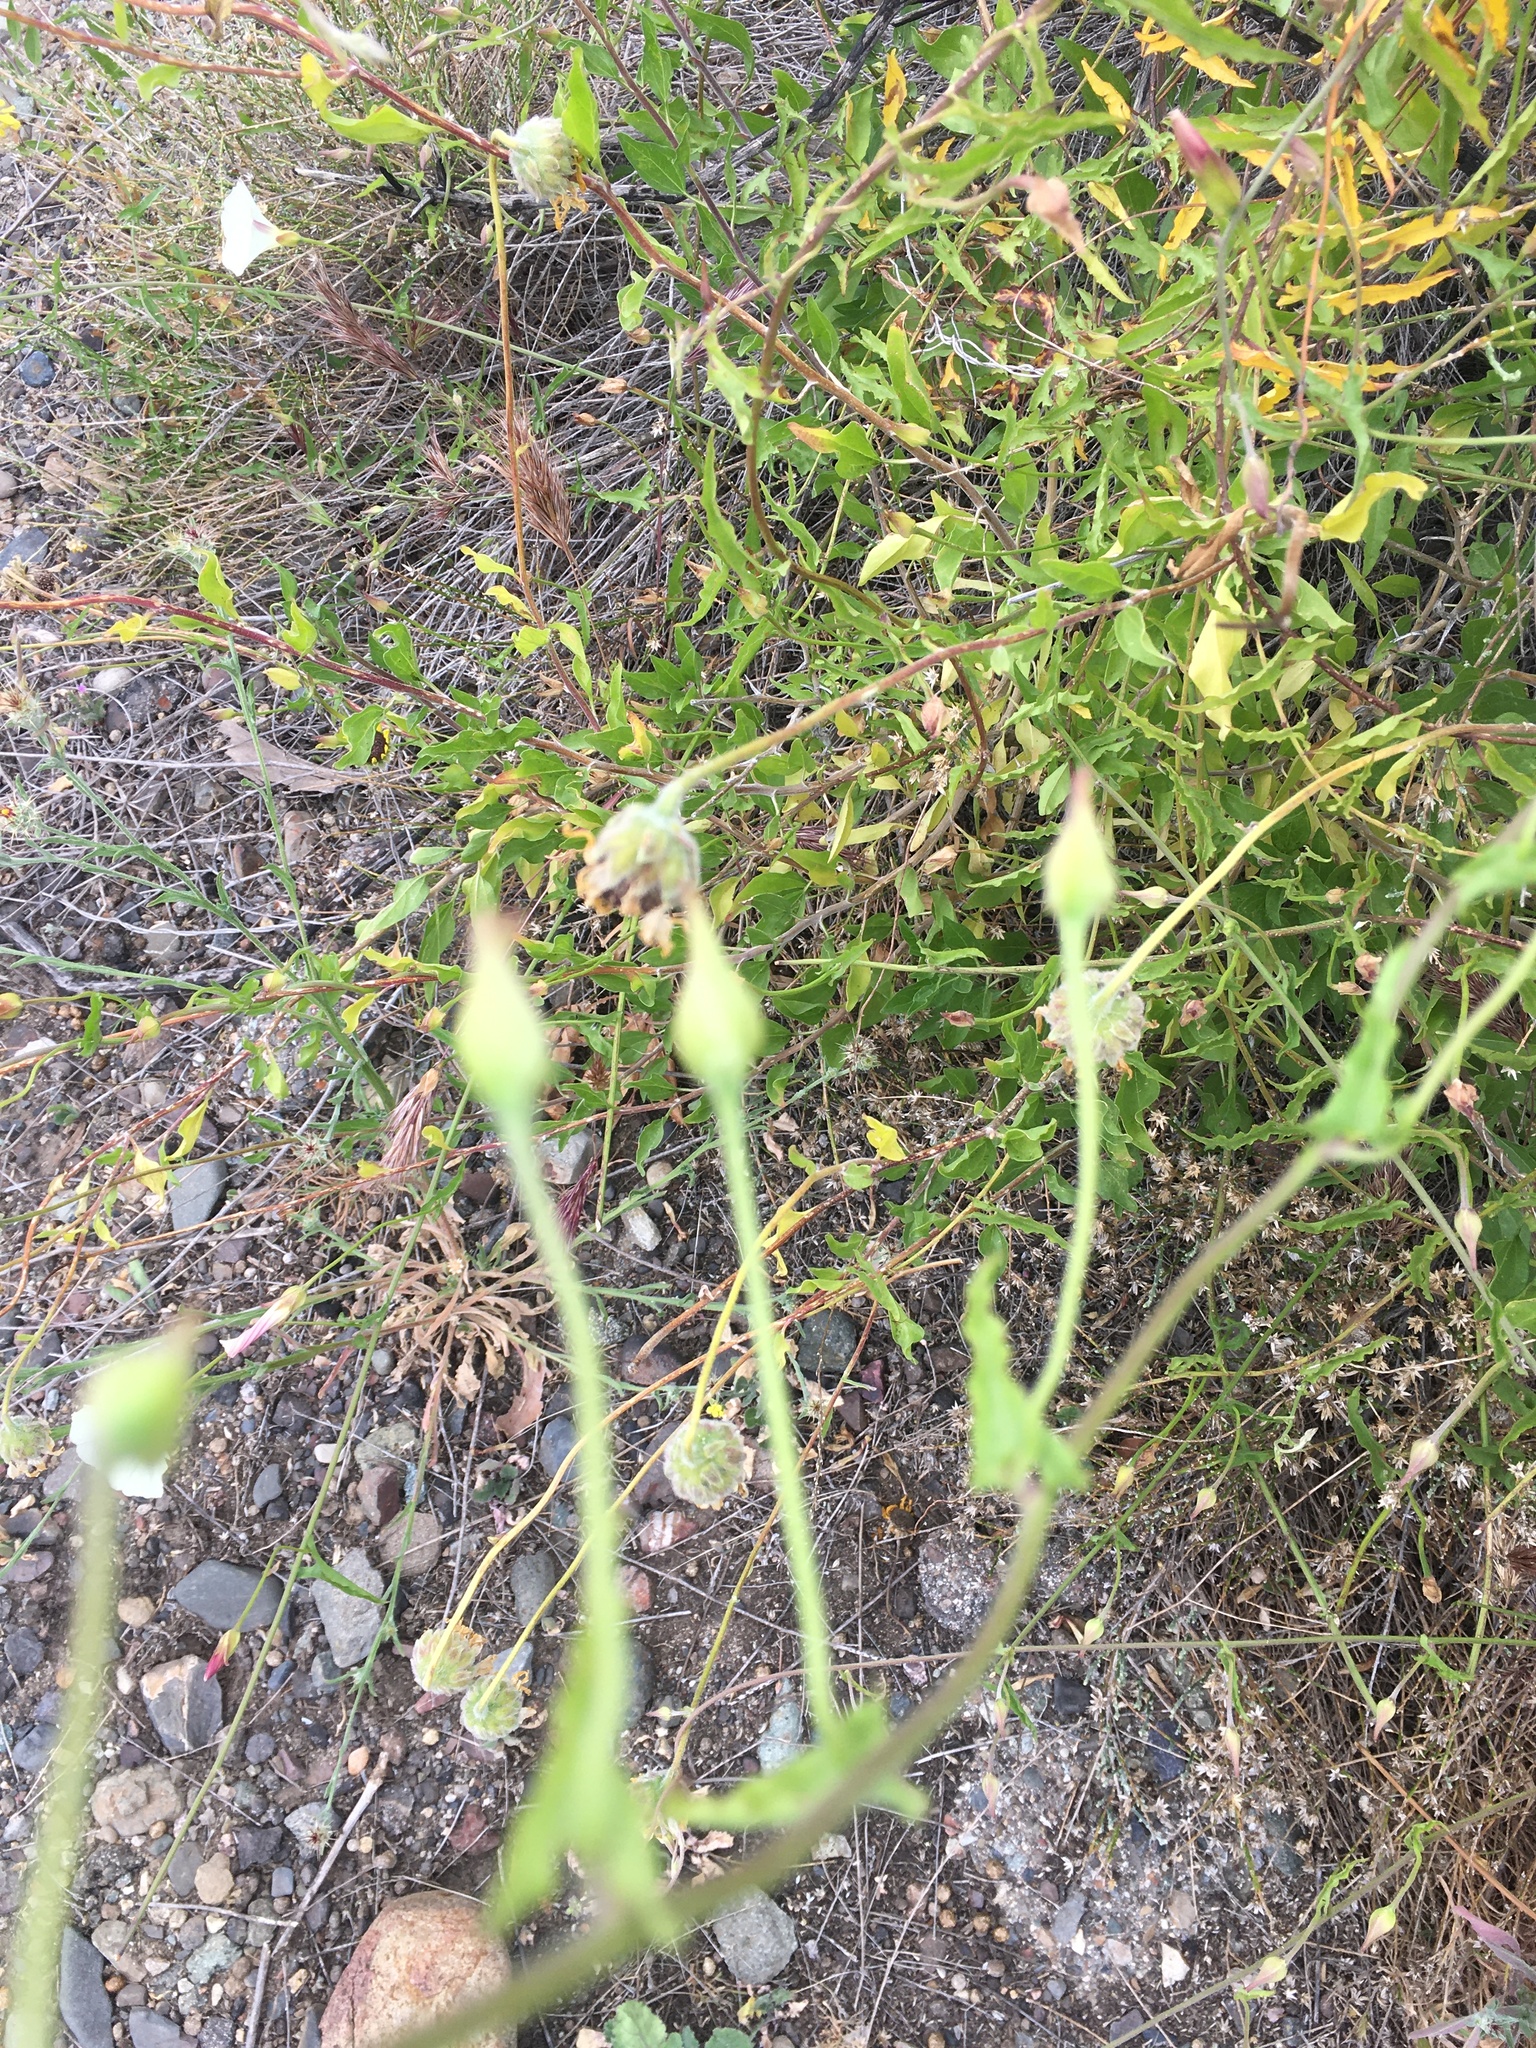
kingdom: Plantae
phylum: Tracheophyta
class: Magnoliopsida
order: Solanales
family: Convolvulaceae
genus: Calystegia
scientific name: Calystegia macrostegia
